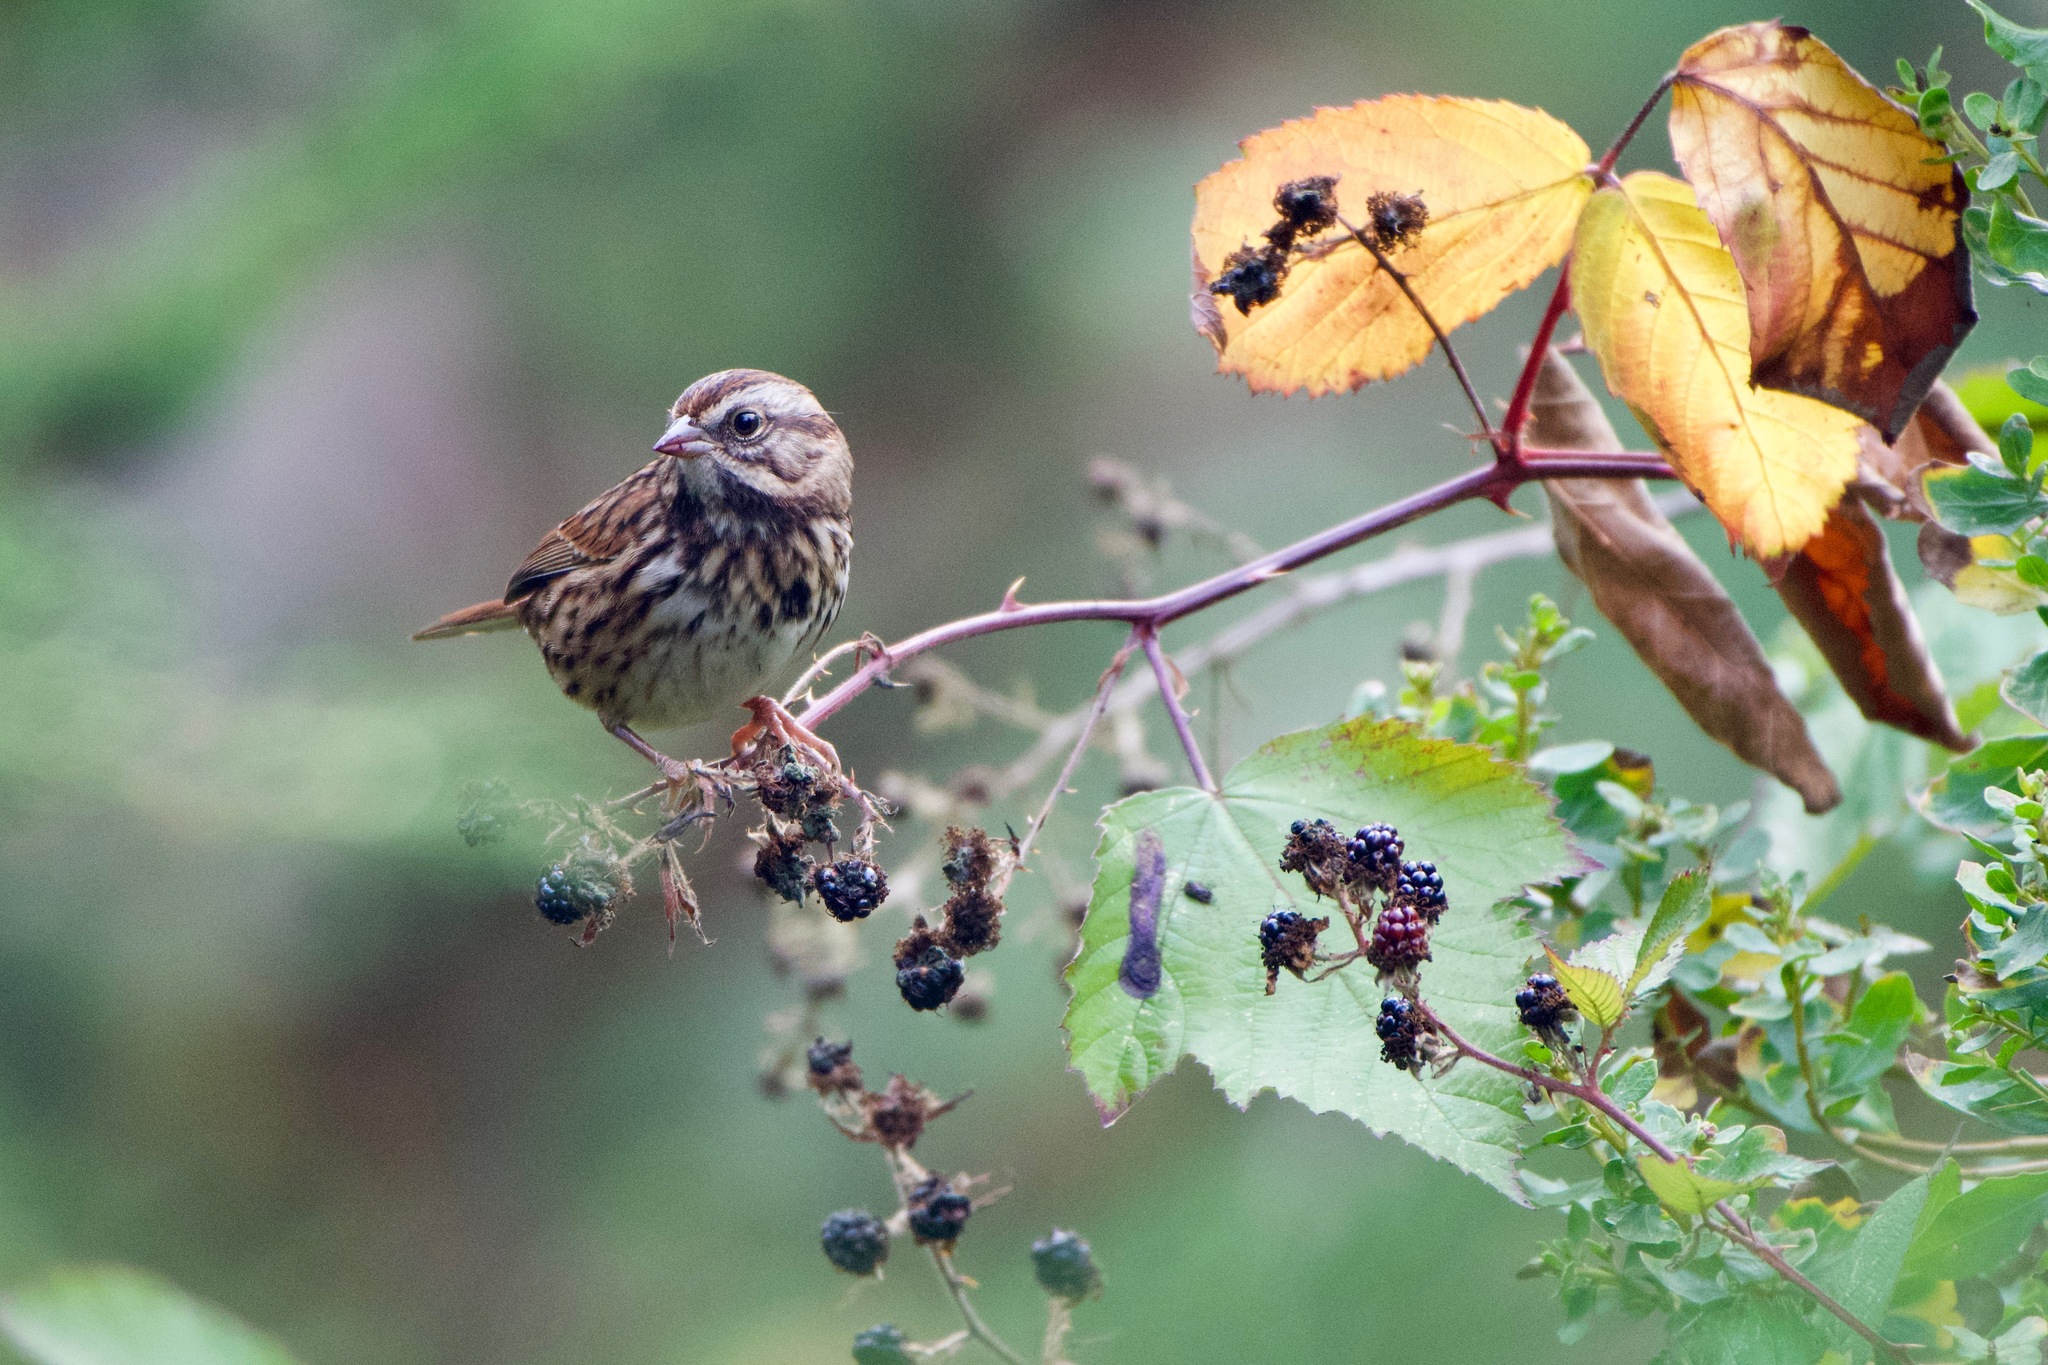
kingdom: Animalia
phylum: Chordata
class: Aves
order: Passeriformes
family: Passerellidae
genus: Melospiza
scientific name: Melospiza melodia
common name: Song sparrow
